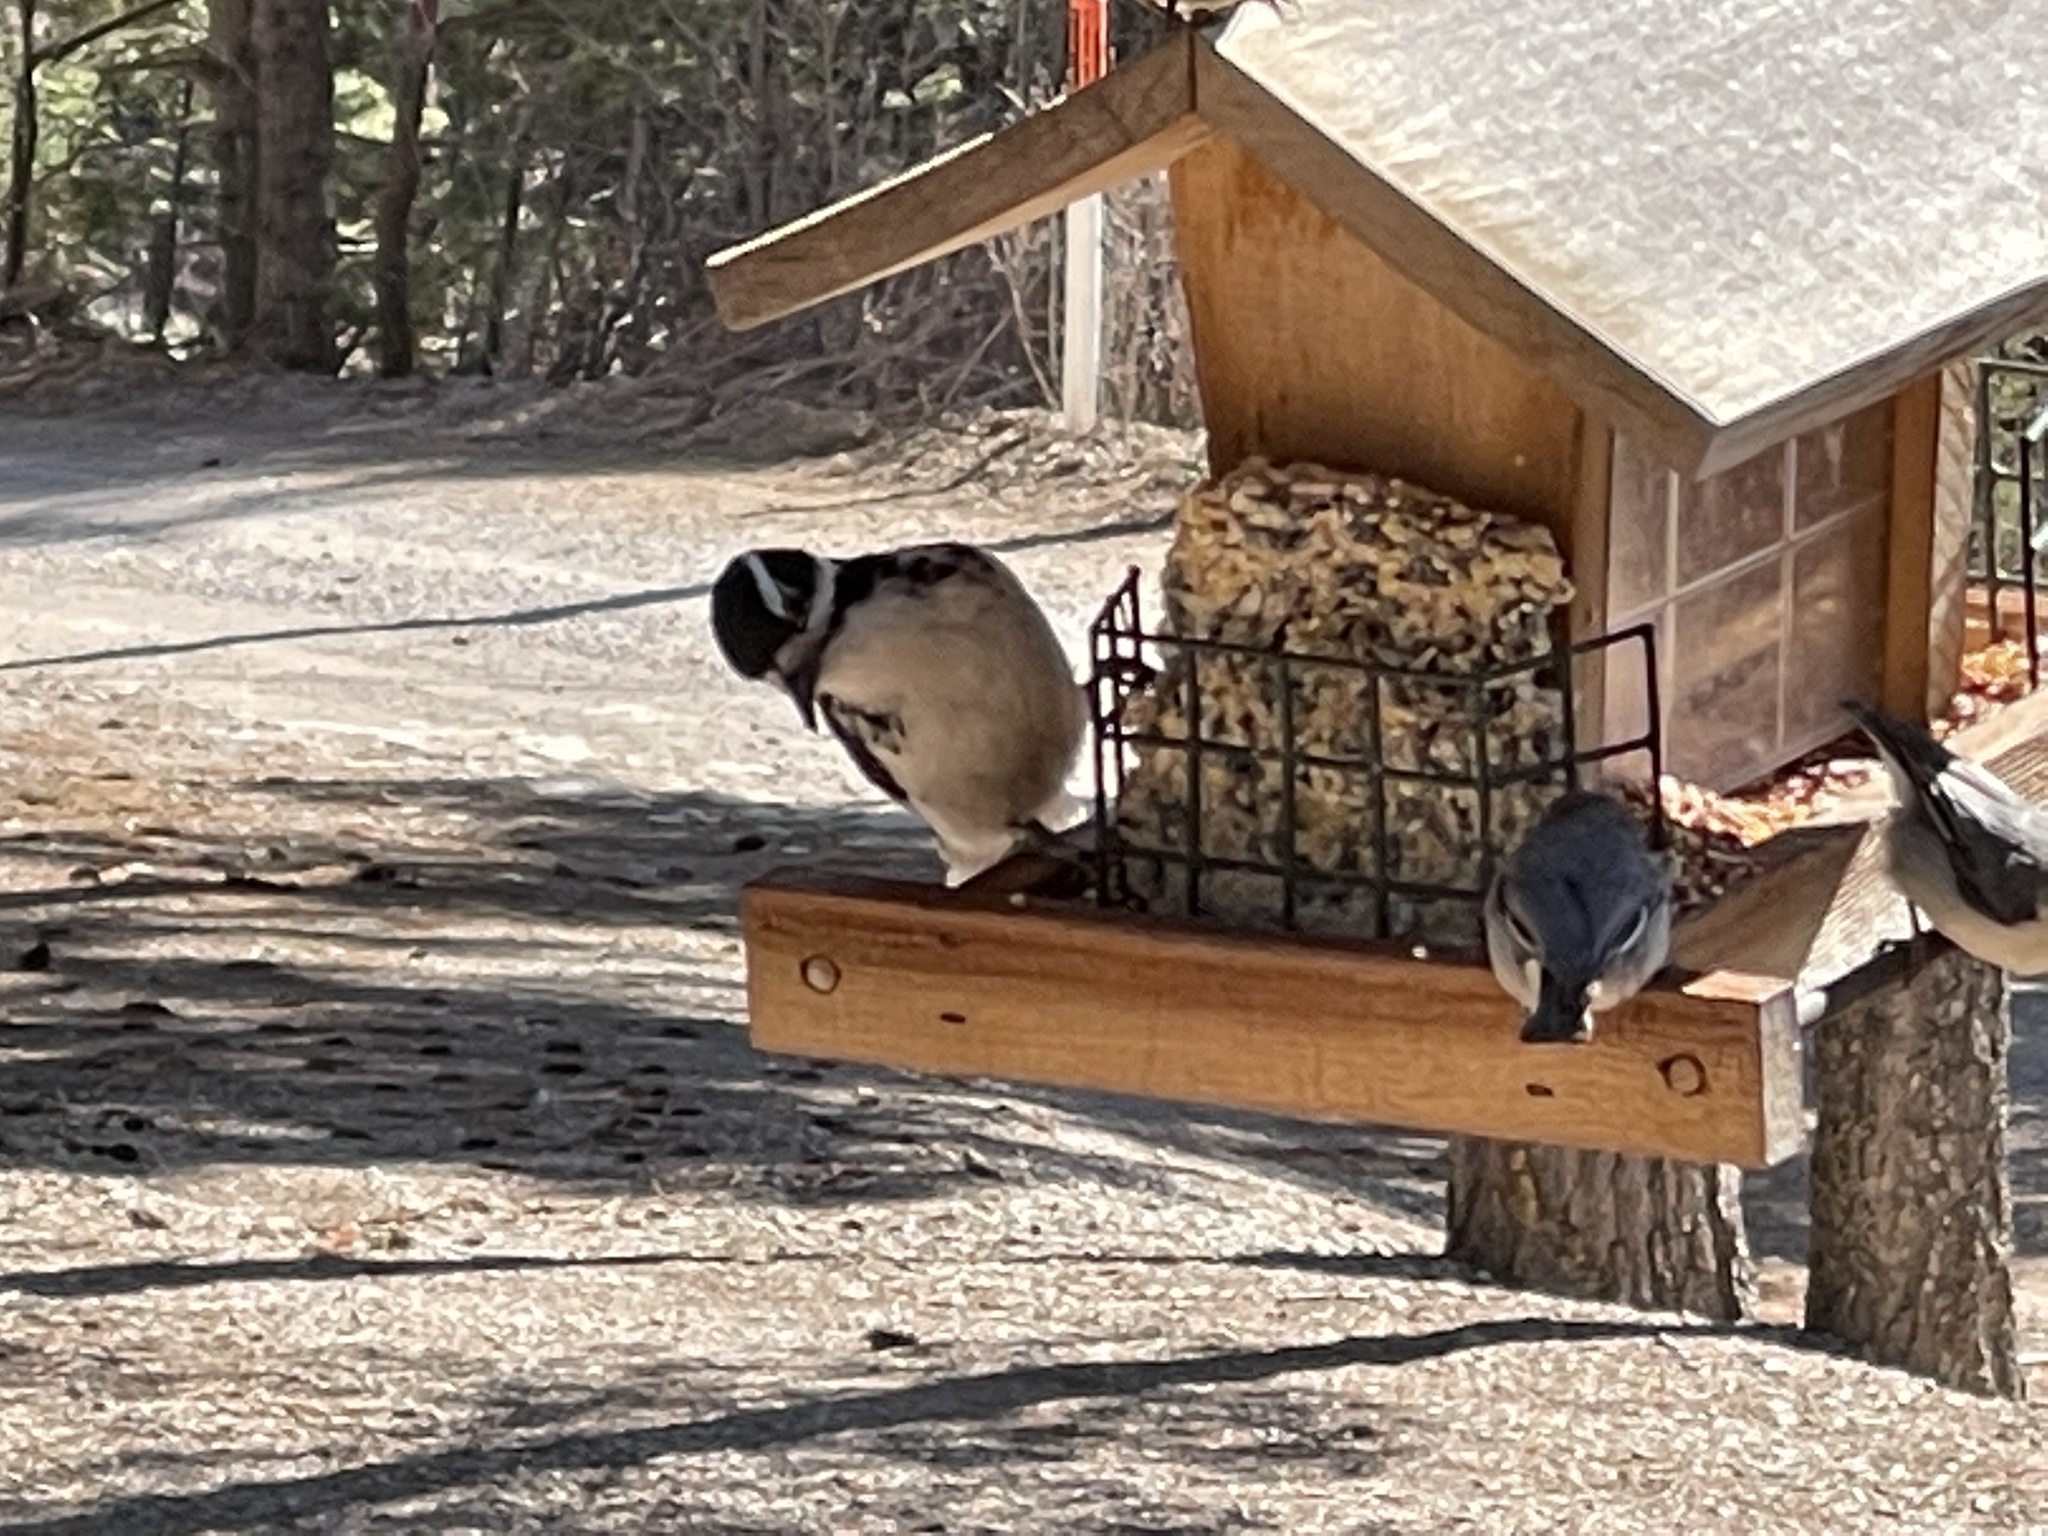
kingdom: Animalia
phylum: Chordata
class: Aves
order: Piciformes
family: Picidae
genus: Leuconotopicus
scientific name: Leuconotopicus villosus
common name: Hairy woodpecker
